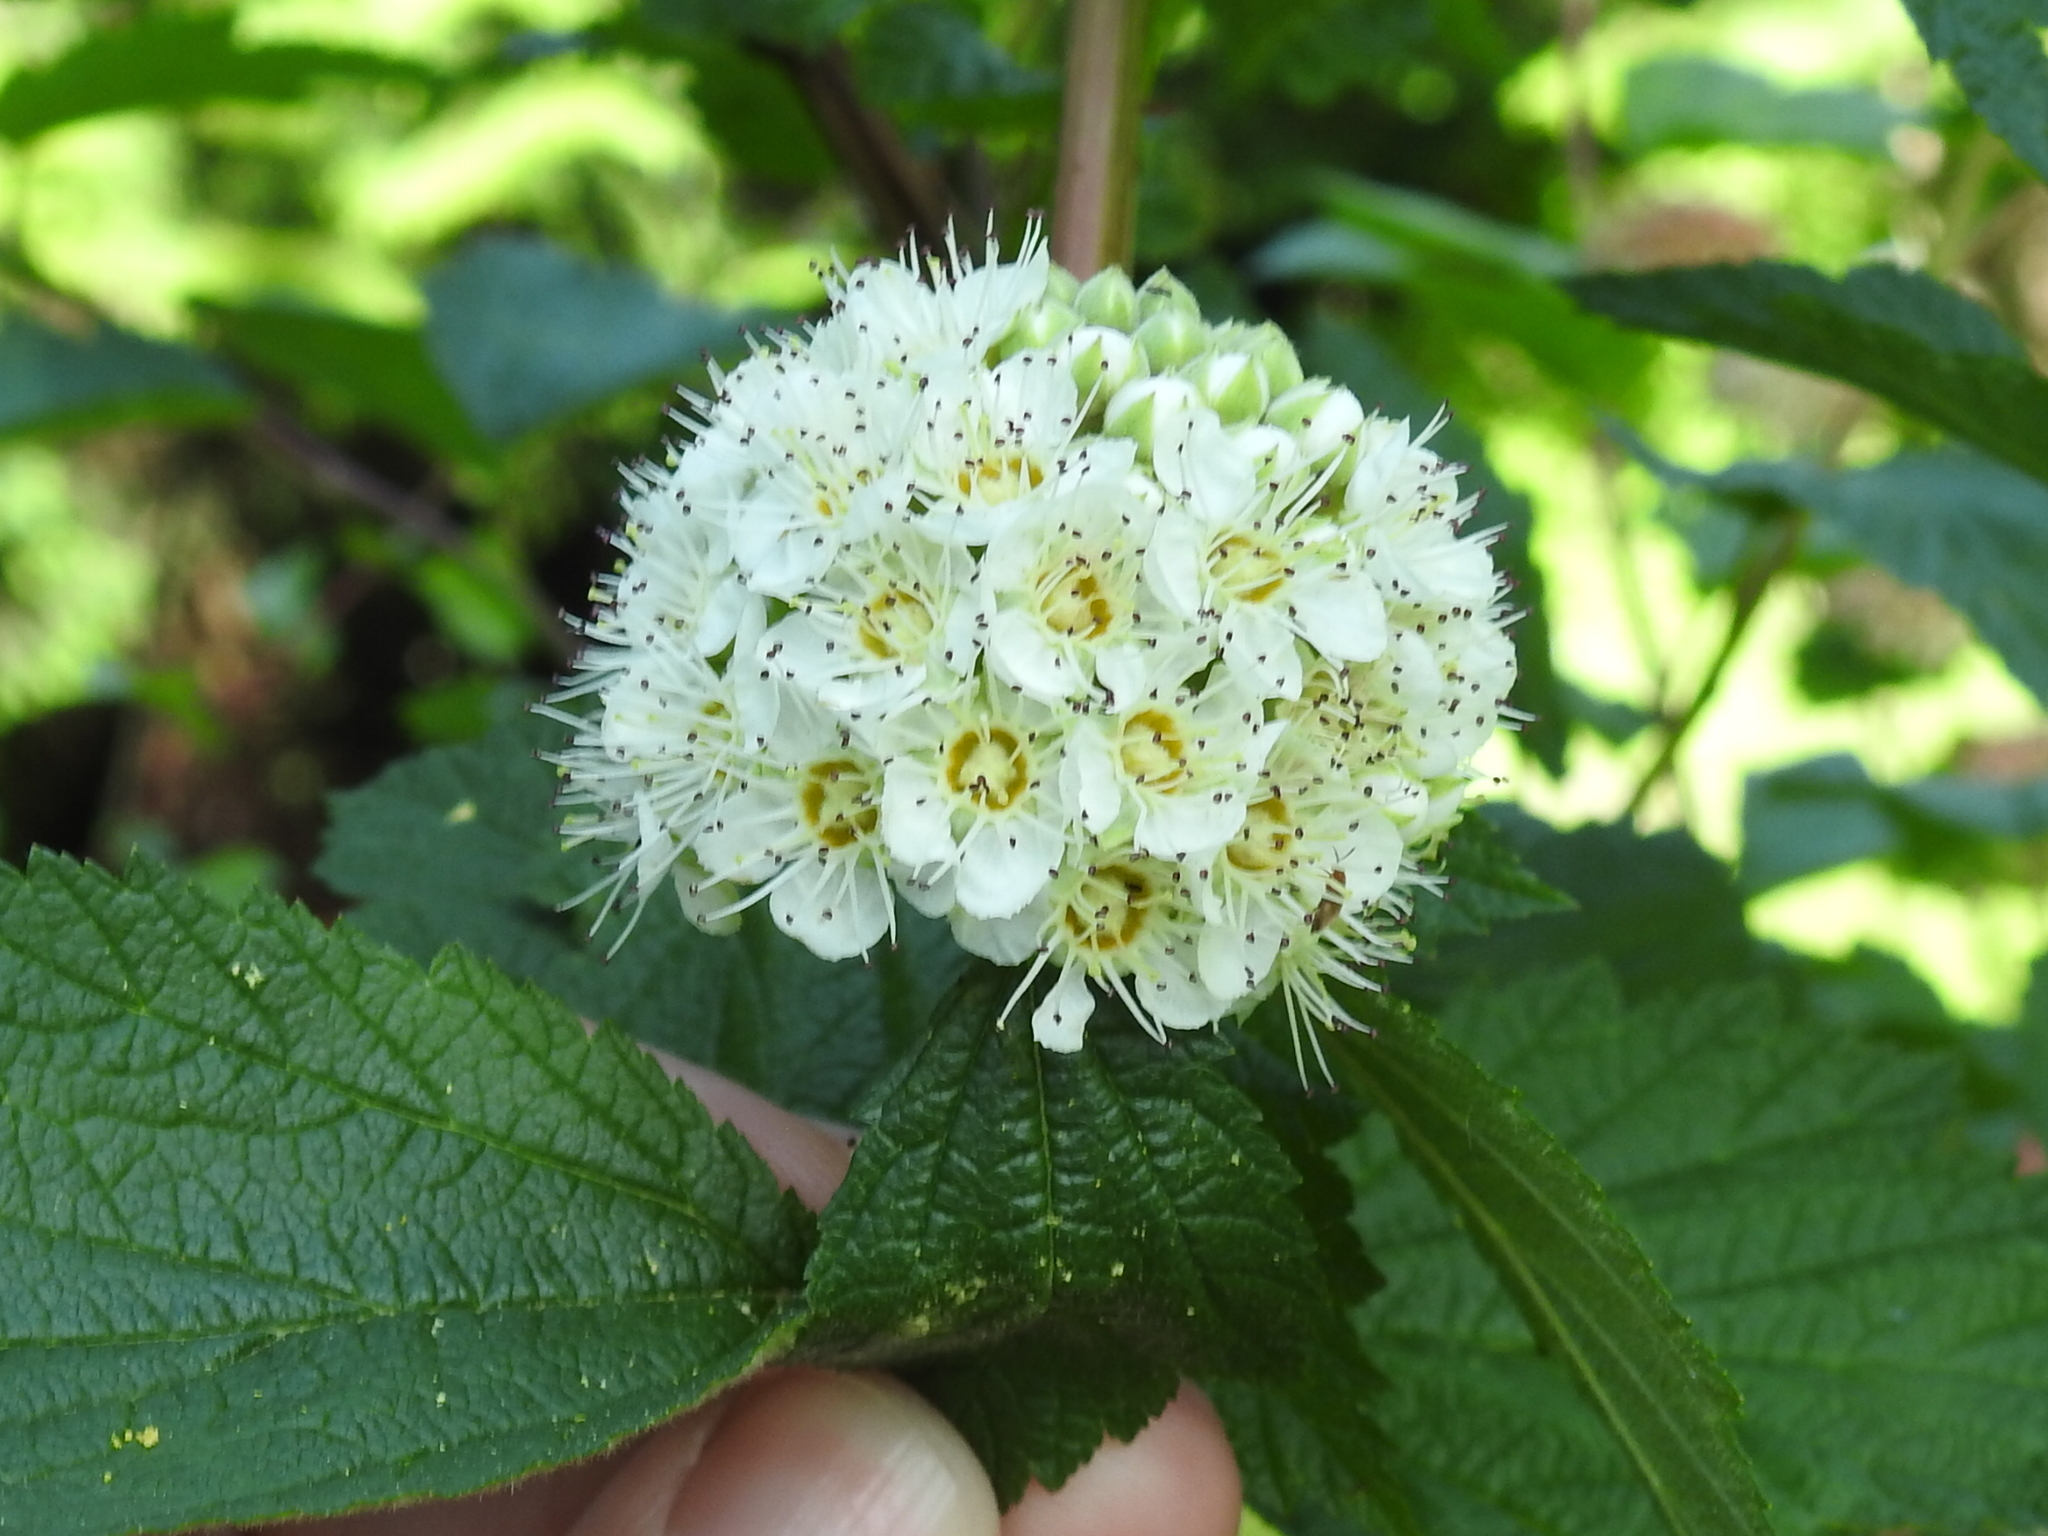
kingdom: Plantae
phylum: Tracheophyta
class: Magnoliopsida
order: Rosales
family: Rosaceae
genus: Physocarpus
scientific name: Physocarpus capitatus
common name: Pacific ninebark
